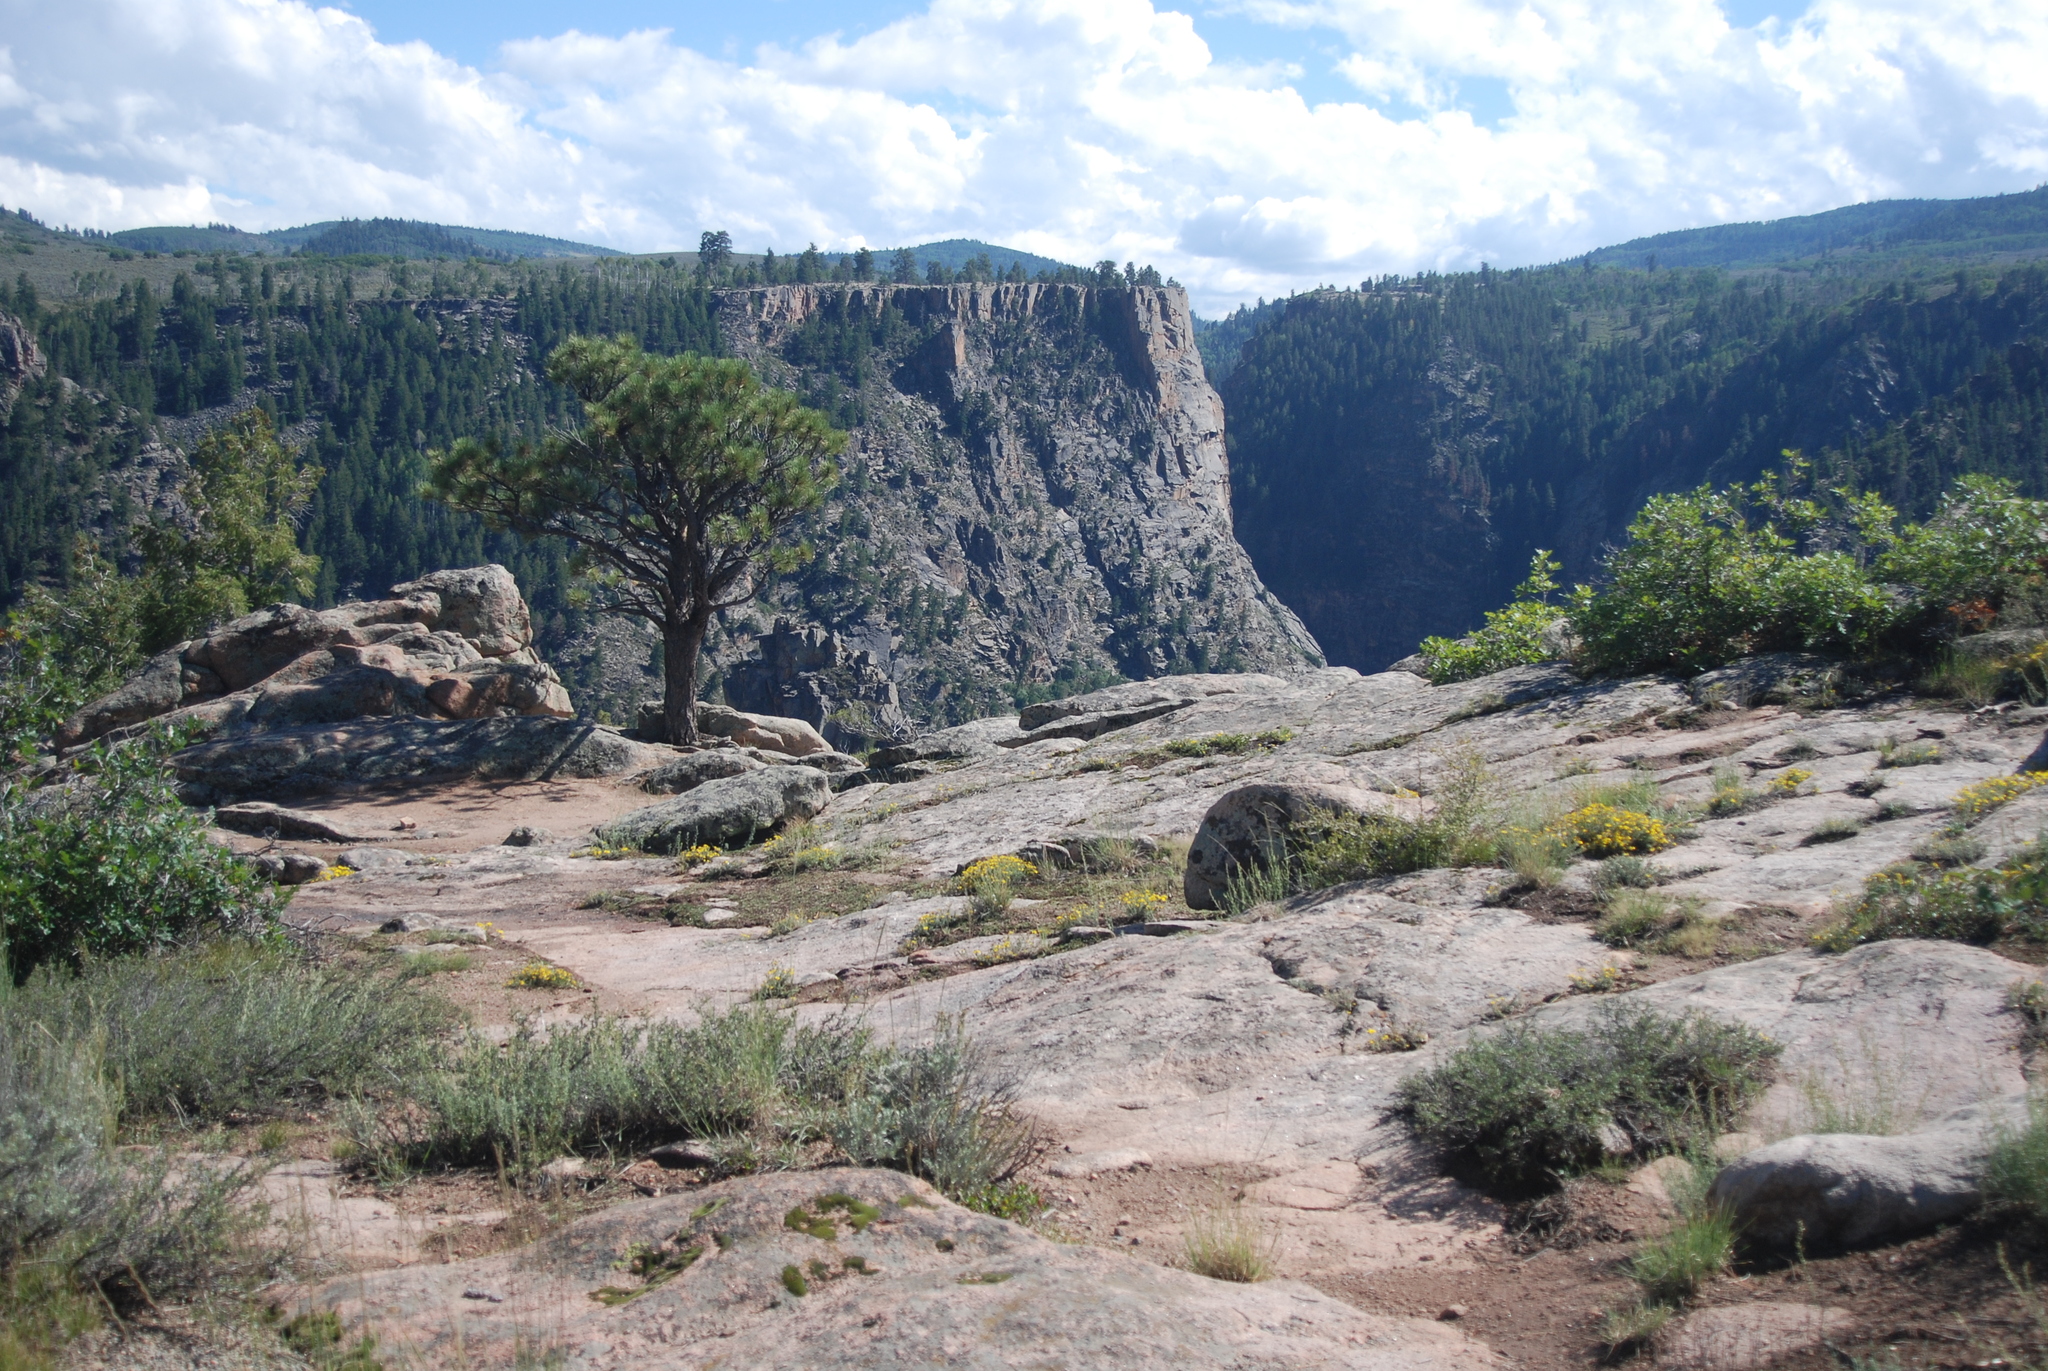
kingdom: Plantae
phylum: Tracheophyta
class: Magnoliopsida
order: Fagales
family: Fagaceae
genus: Quercus
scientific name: Quercus gambelii
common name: Gambel oak
